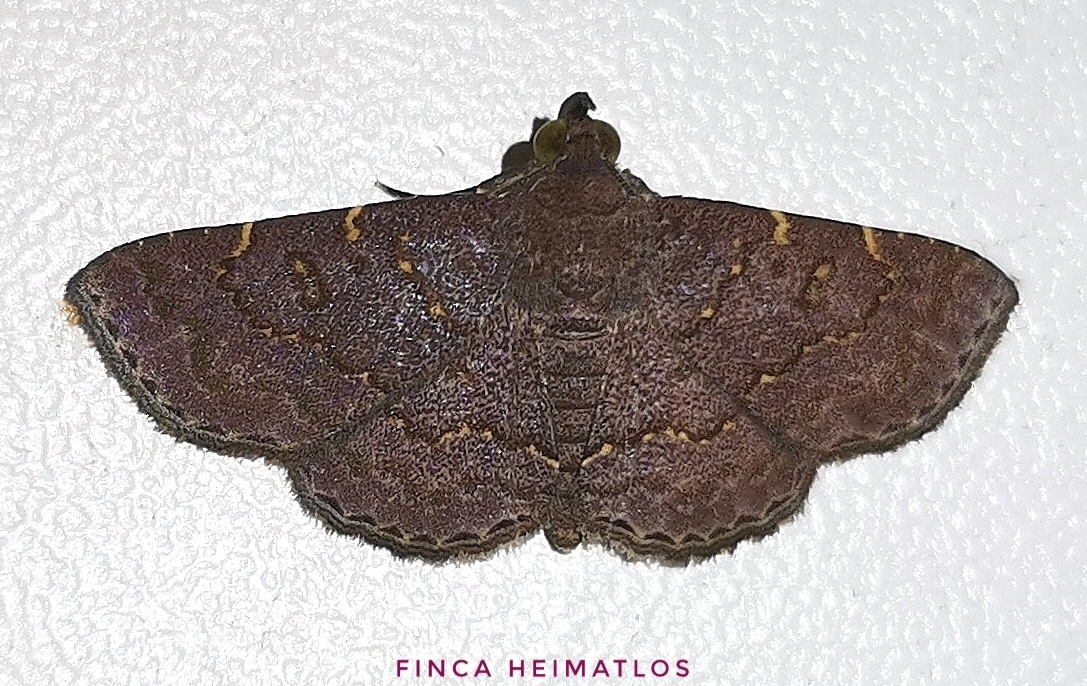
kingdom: Animalia
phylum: Arthropoda
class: Insecta
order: Lepidoptera
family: Erebidae
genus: Antiblemma
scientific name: Antiblemma concinnula
